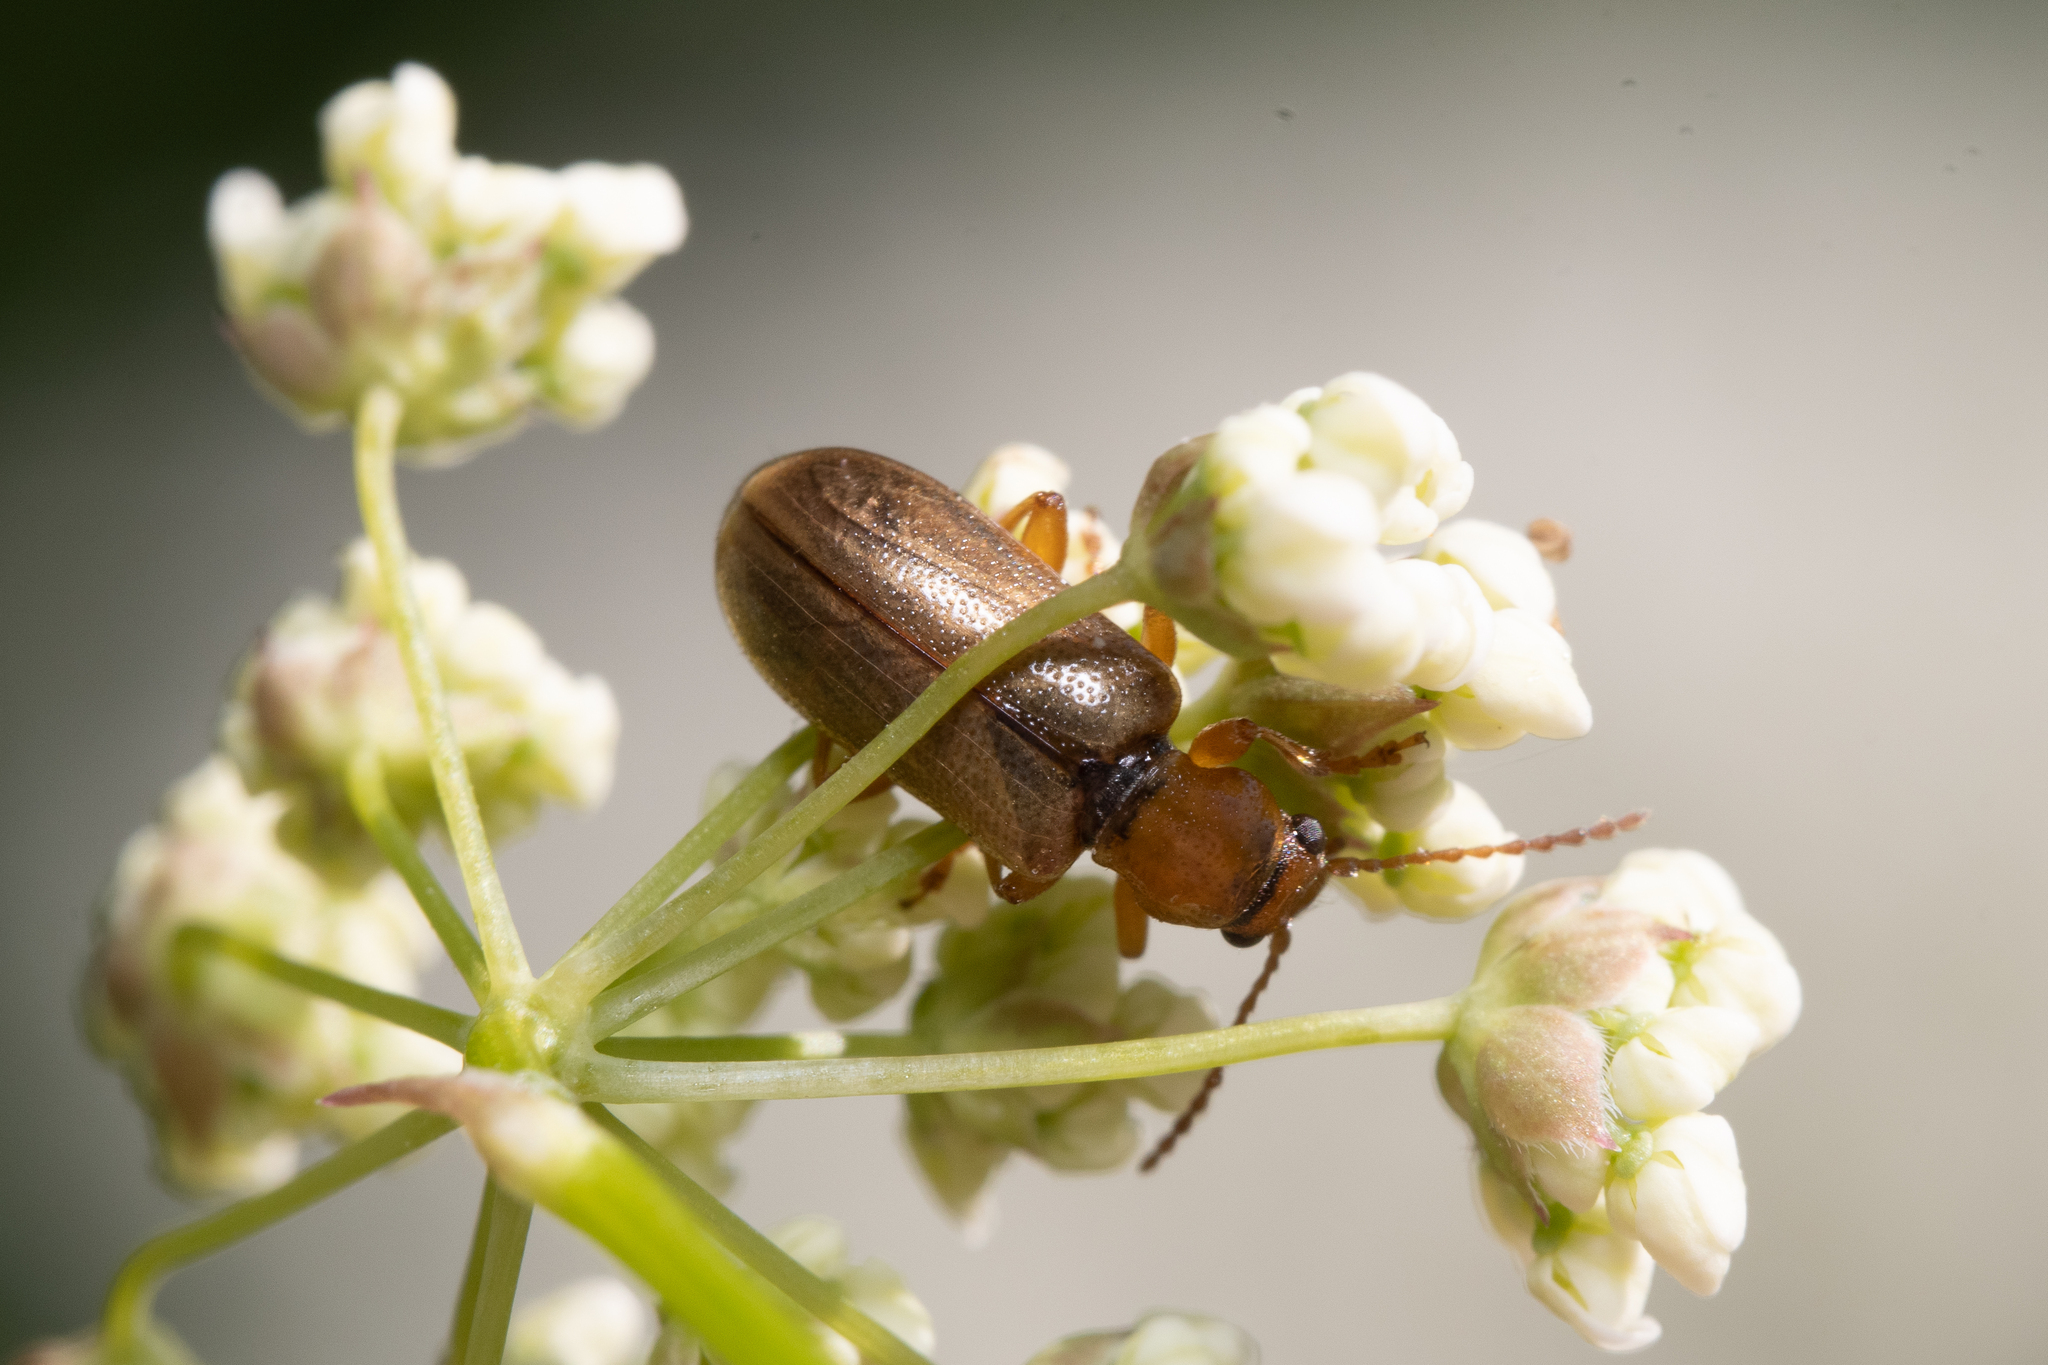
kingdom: Animalia
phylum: Arthropoda
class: Insecta
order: Coleoptera
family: Orsodacnidae
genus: Orsodacne
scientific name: Orsodacne cerasi
